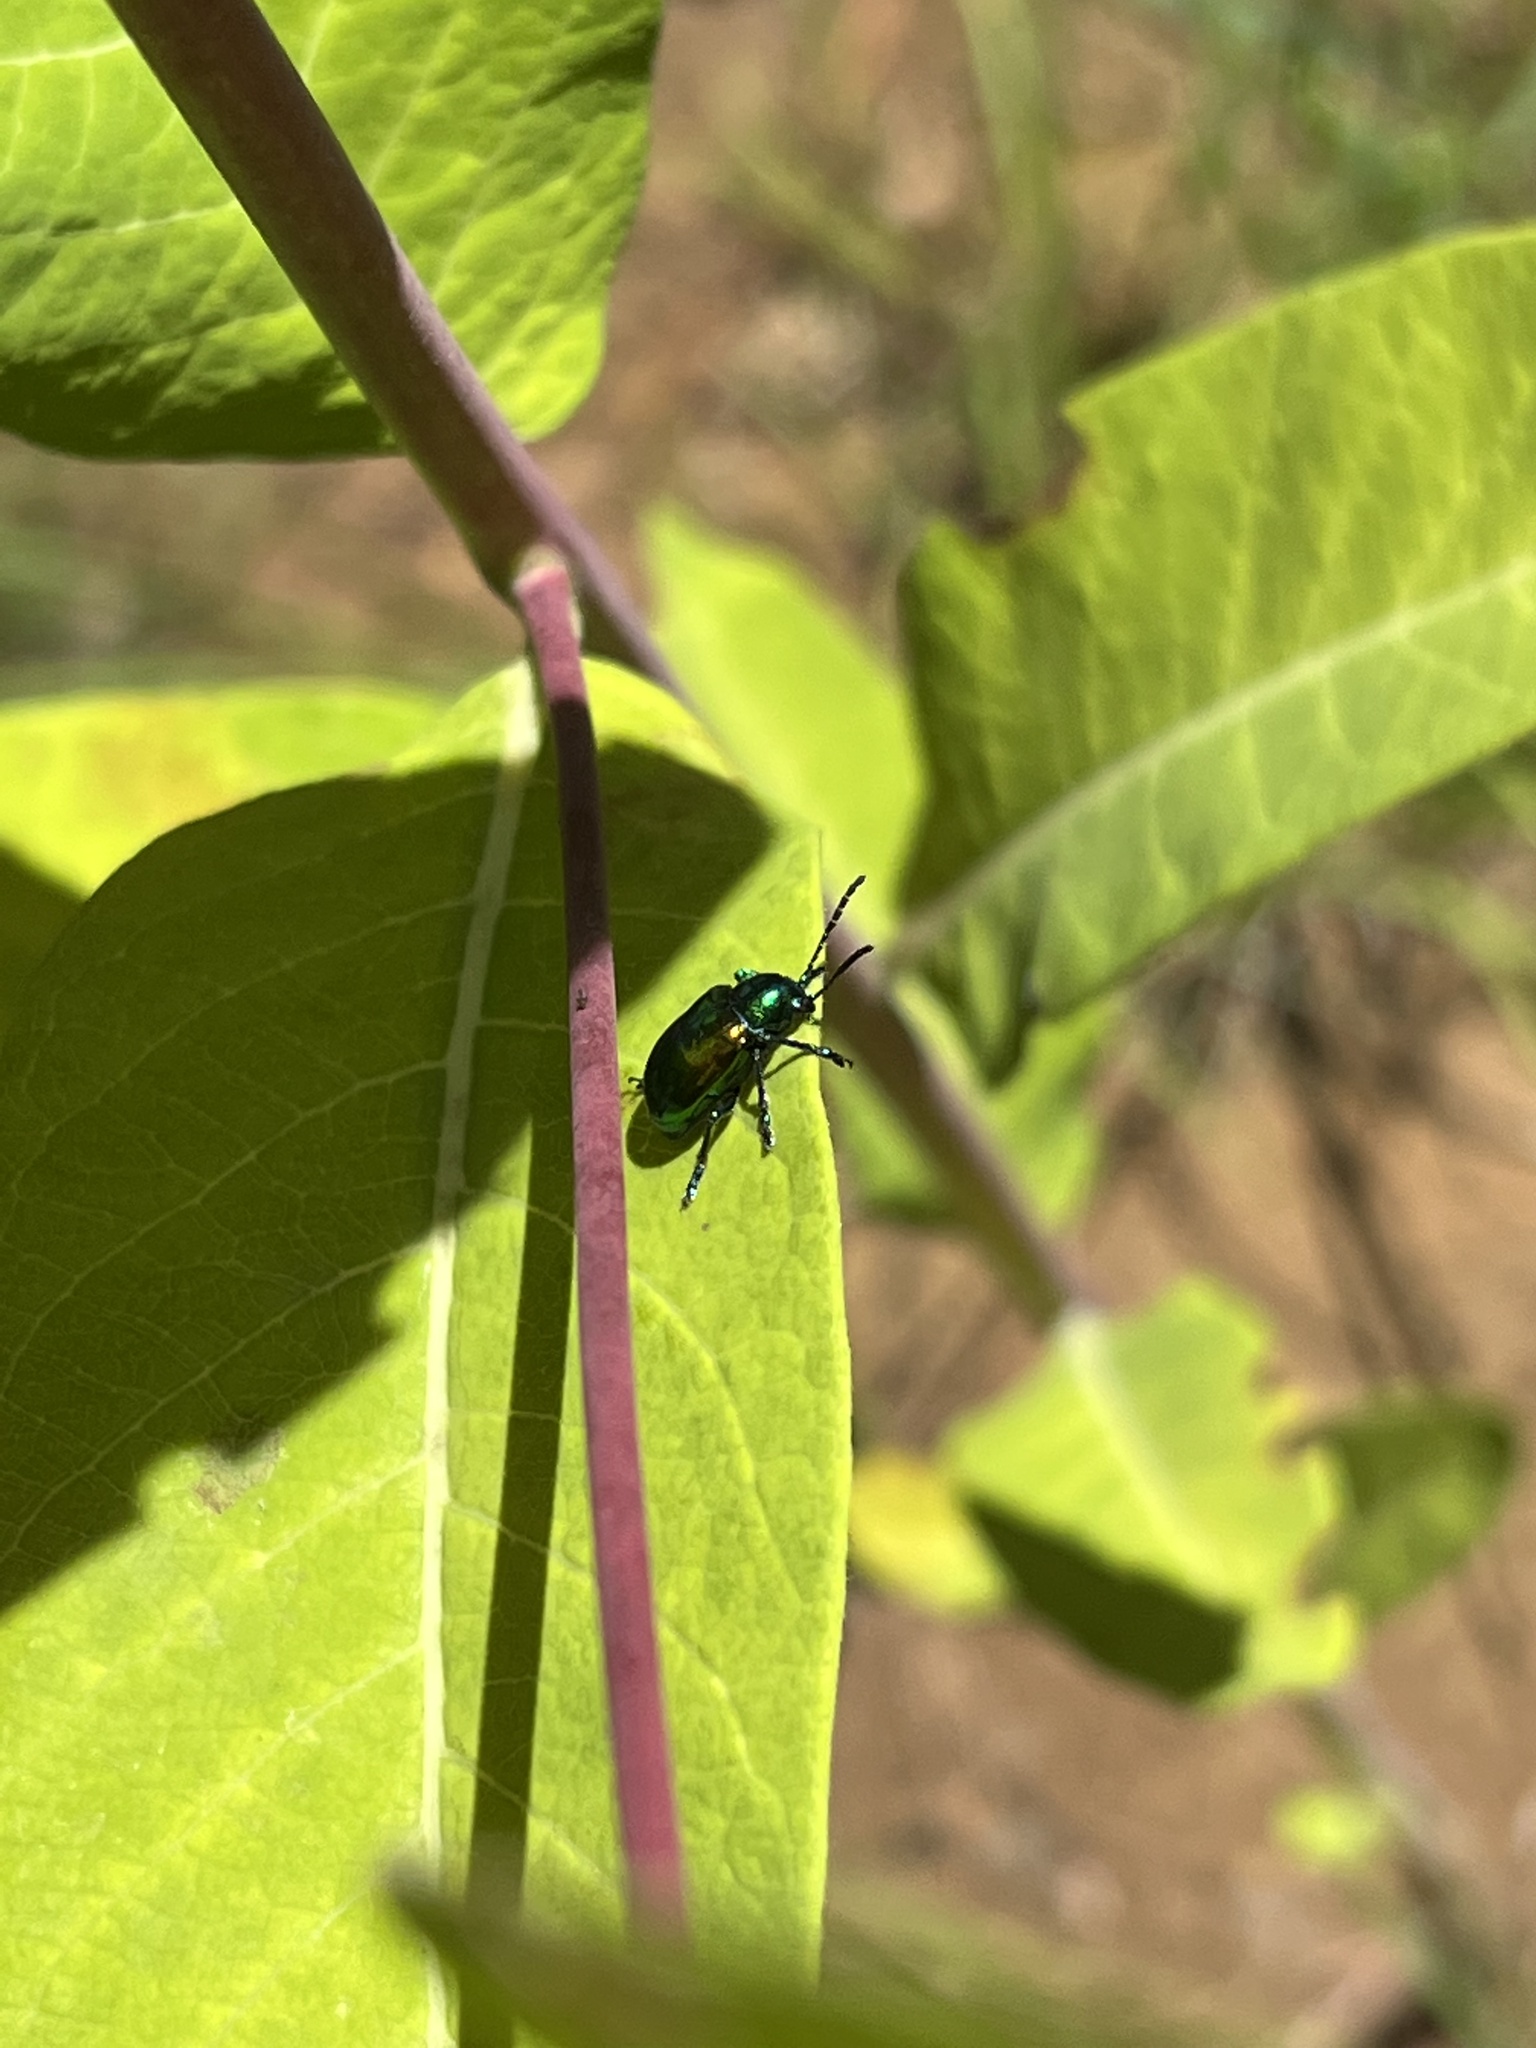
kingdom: Animalia
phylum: Arthropoda
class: Insecta
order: Coleoptera
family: Chrysomelidae
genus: Chrysochus
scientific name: Chrysochus auratus
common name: Dogbane leaf beetle
